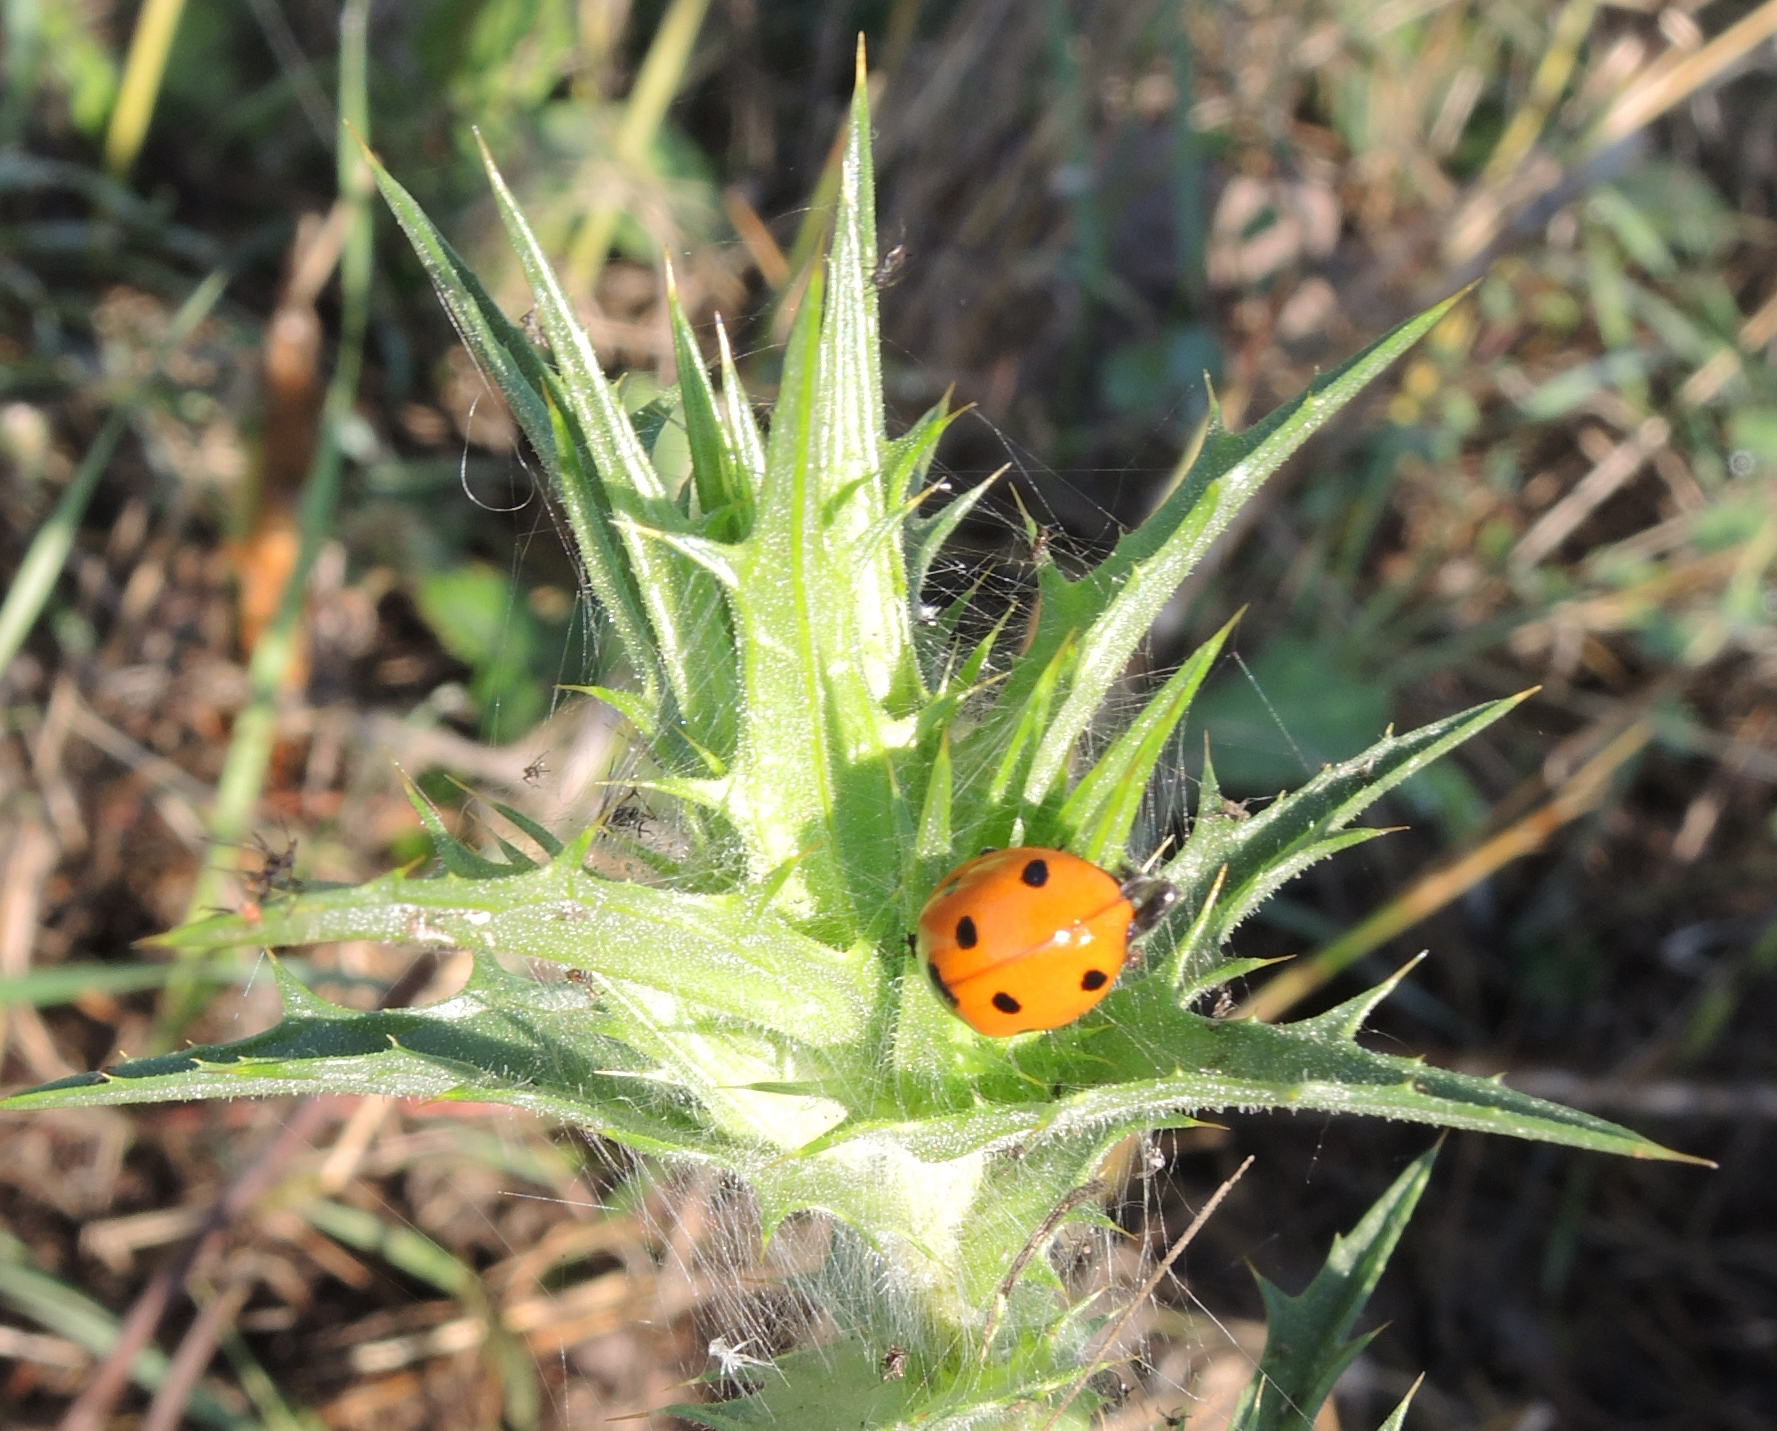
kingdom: Animalia
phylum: Arthropoda
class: Insecta
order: Coleoptera
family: Coccinellidae
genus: Coccinella
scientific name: Coccinella septempunctata
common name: Sevenspotted lady beetle
